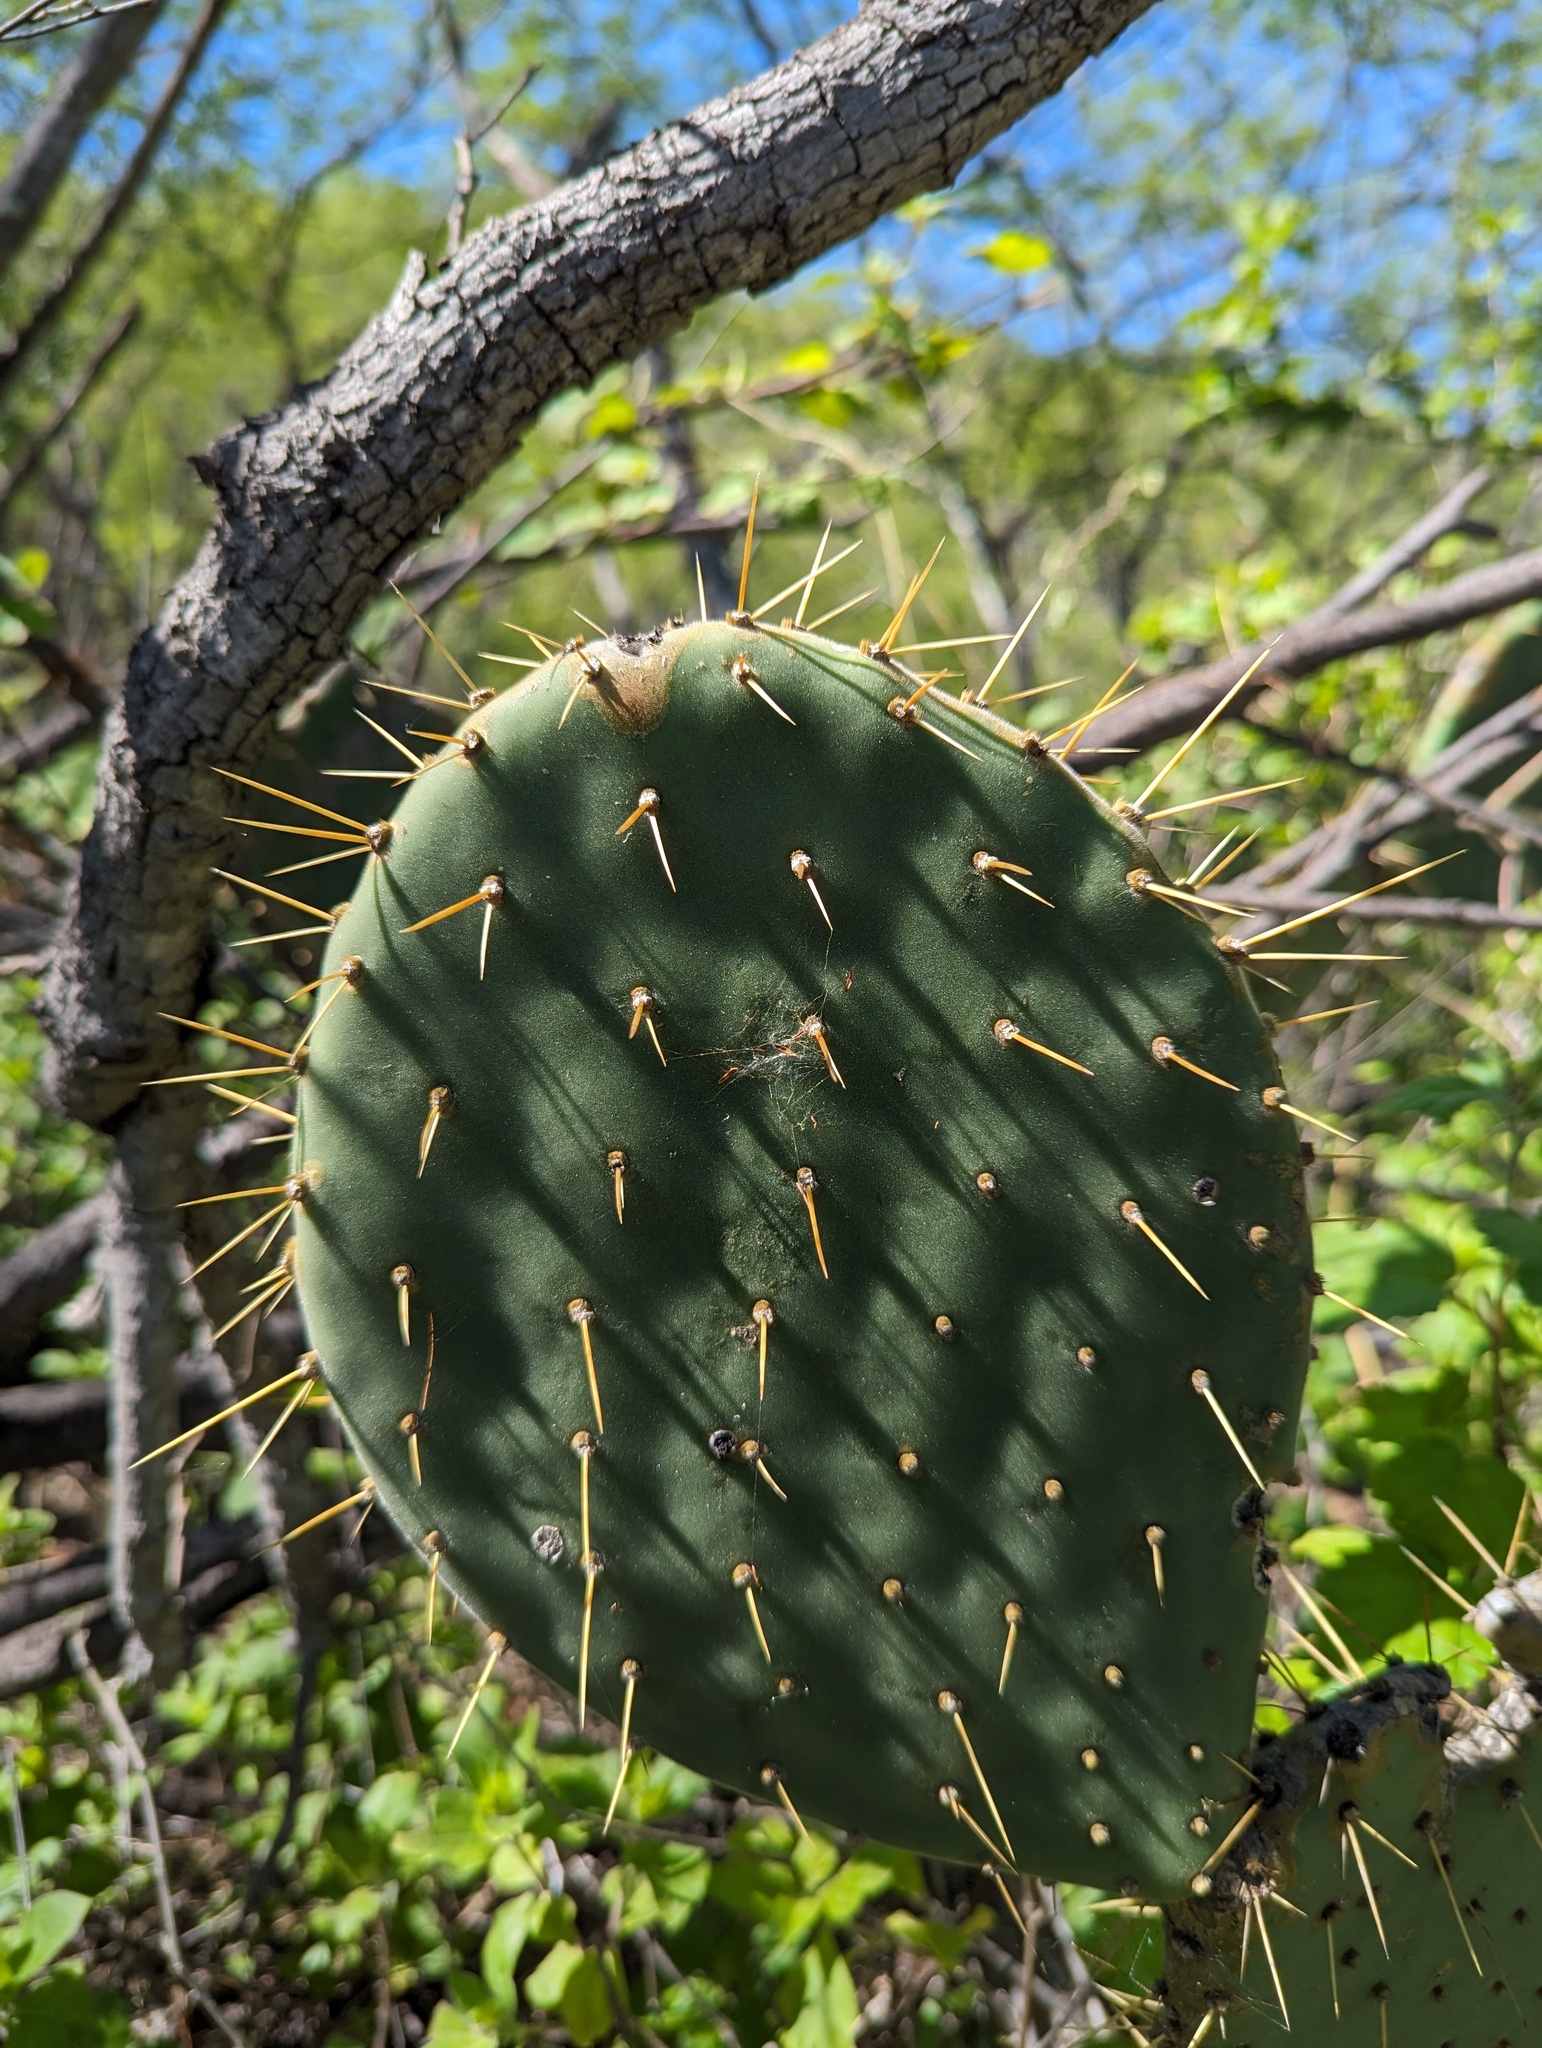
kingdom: Plantae
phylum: Tracheophyta
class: Magnoliopsida
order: Caryophyllales
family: Cactaceae
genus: Opuntia
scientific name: Opuntia caboensis
